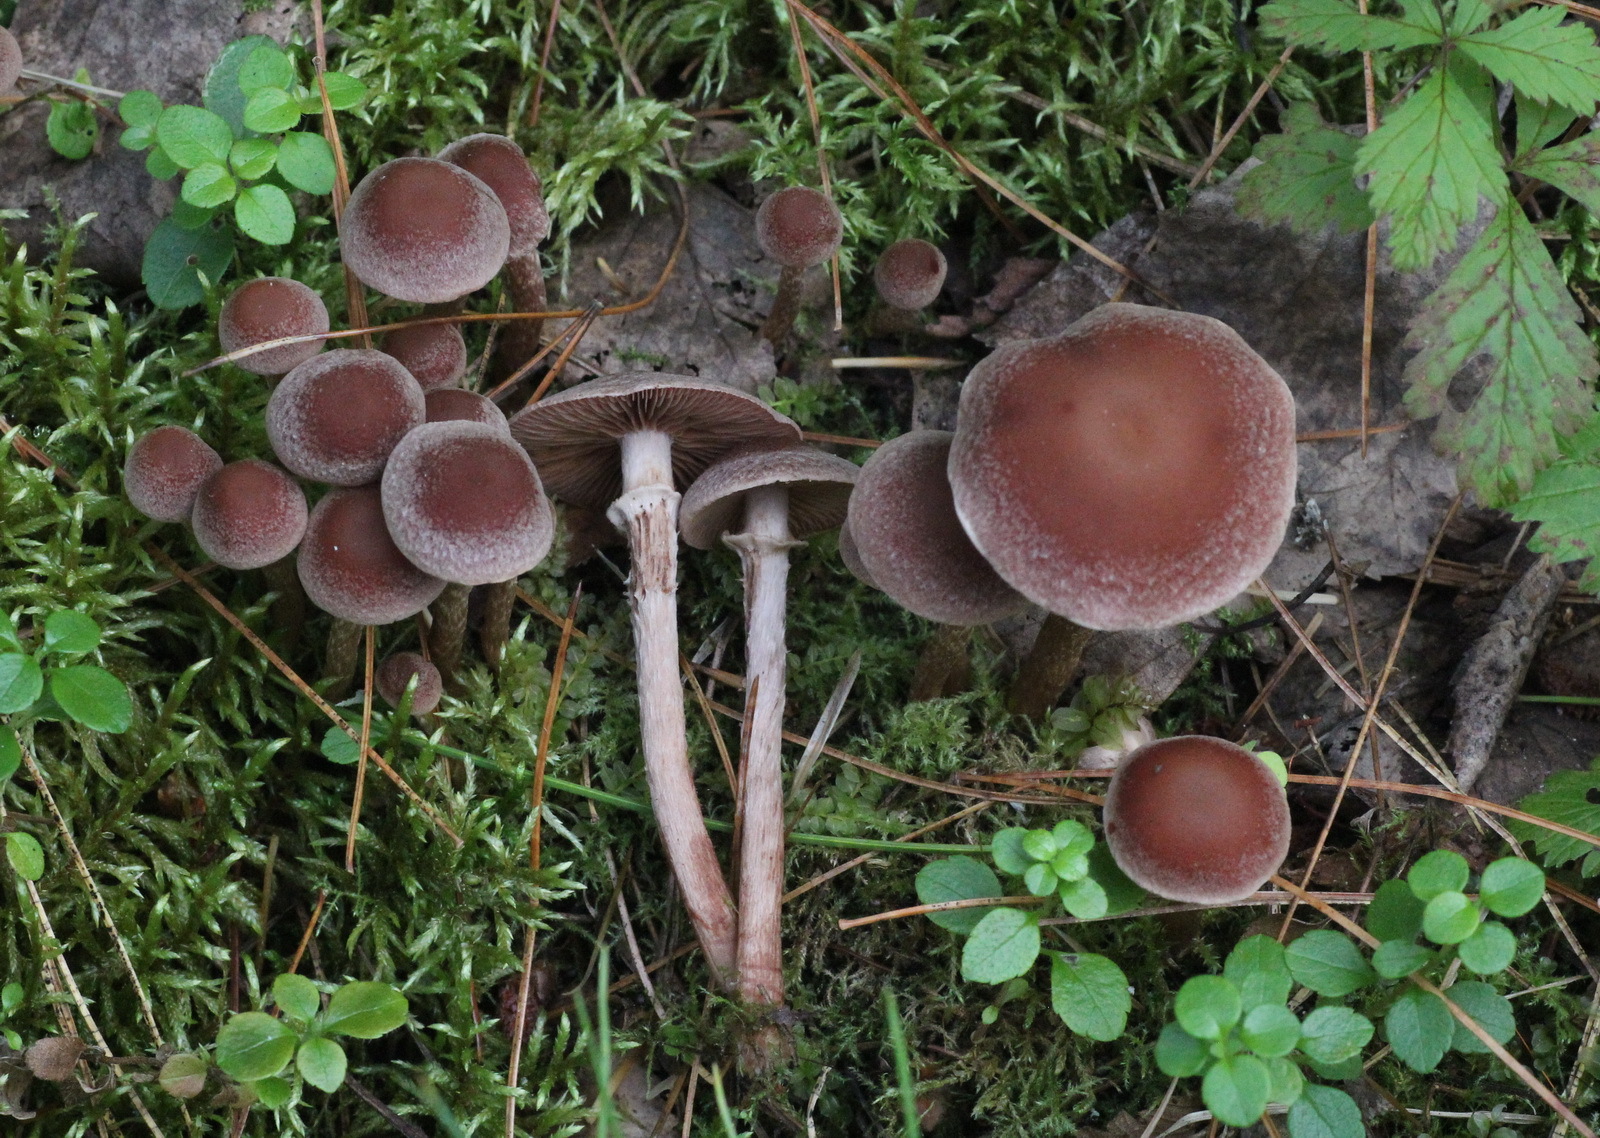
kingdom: Fungi
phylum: Basidiomycota
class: Agaricomycetes
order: Agaricales
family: Tubariaceae
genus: Tubaria
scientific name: Tubaria confragosa
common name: Ringed twiglet
